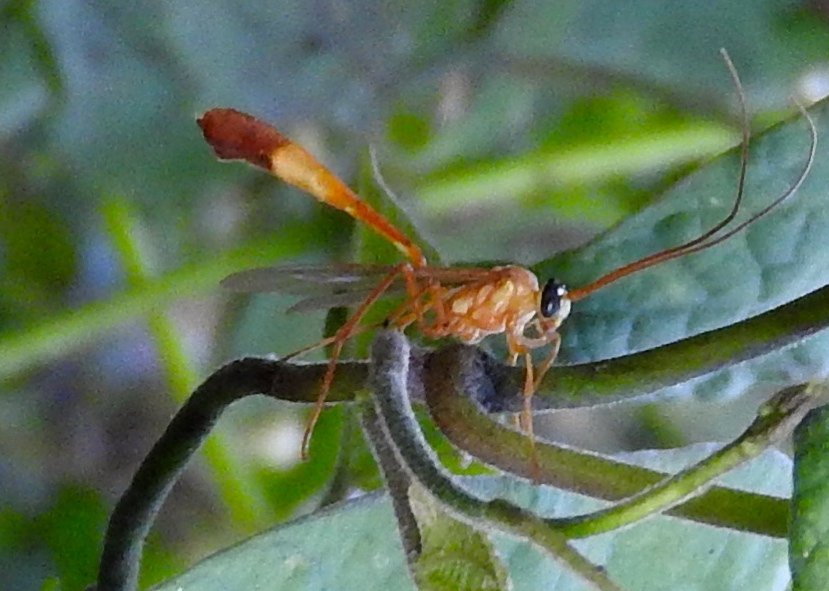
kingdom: Animalia
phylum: Arthropoda
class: Insecta
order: Hymenoptera
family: Ichneumonidae
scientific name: Ichneumonidae
